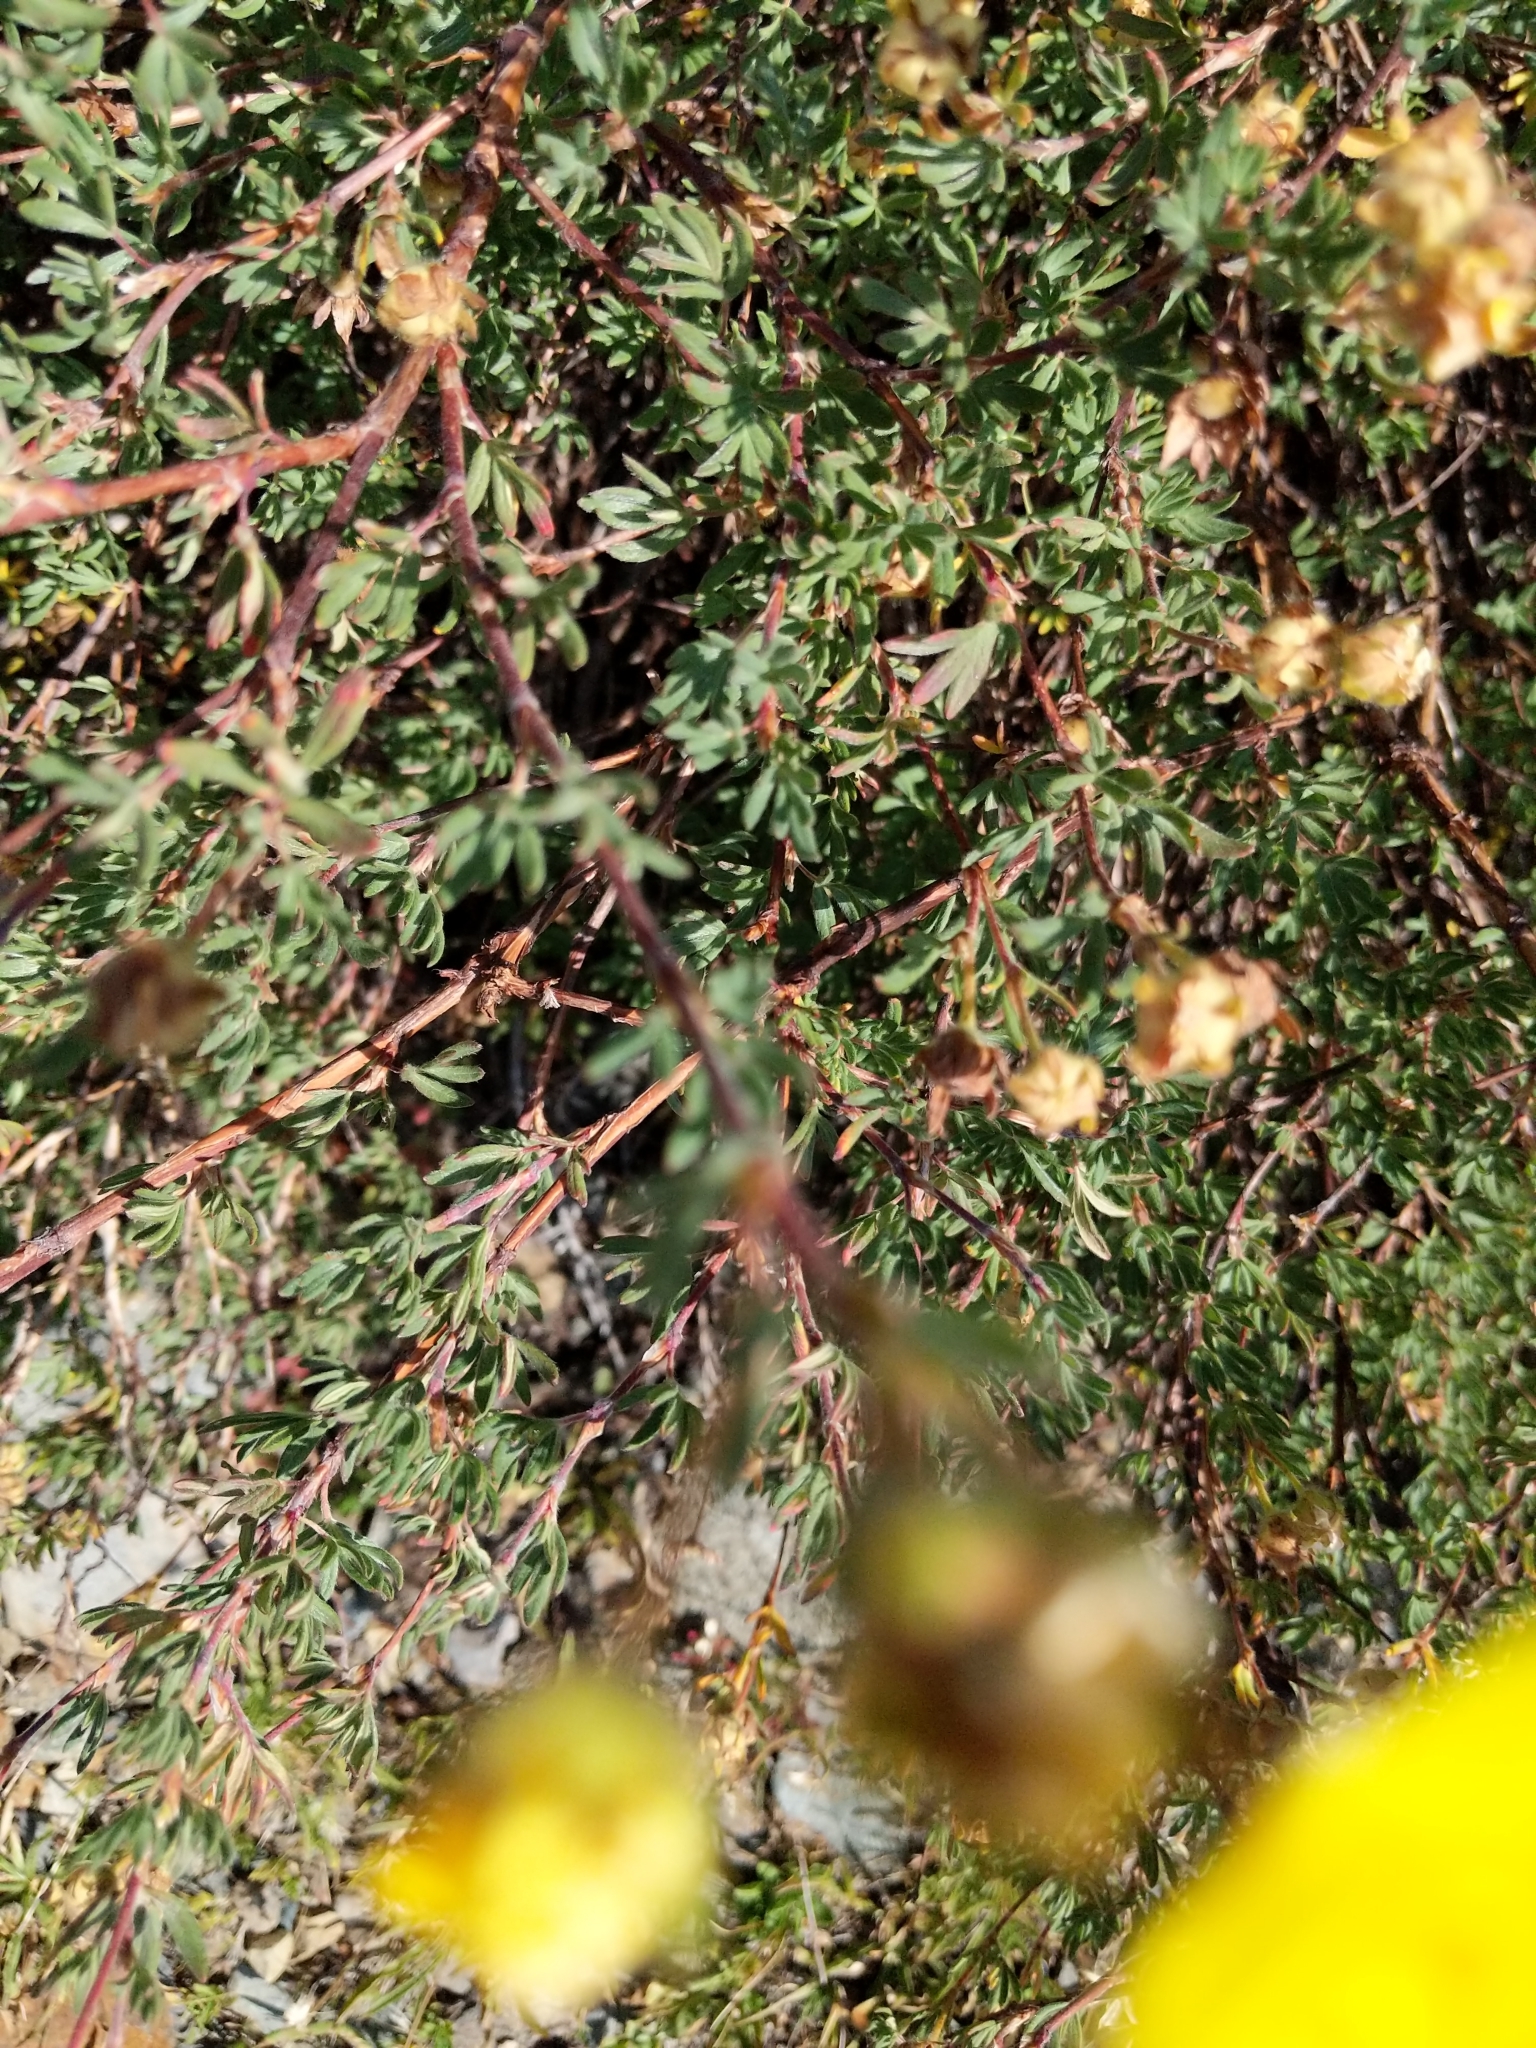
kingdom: Plantae
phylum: Tracheophyta
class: Magnoliopsida
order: Rosales
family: Rosaceae
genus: Dasiphora
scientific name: Dasiphora fruticosa
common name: Shrubby cinquefoil
